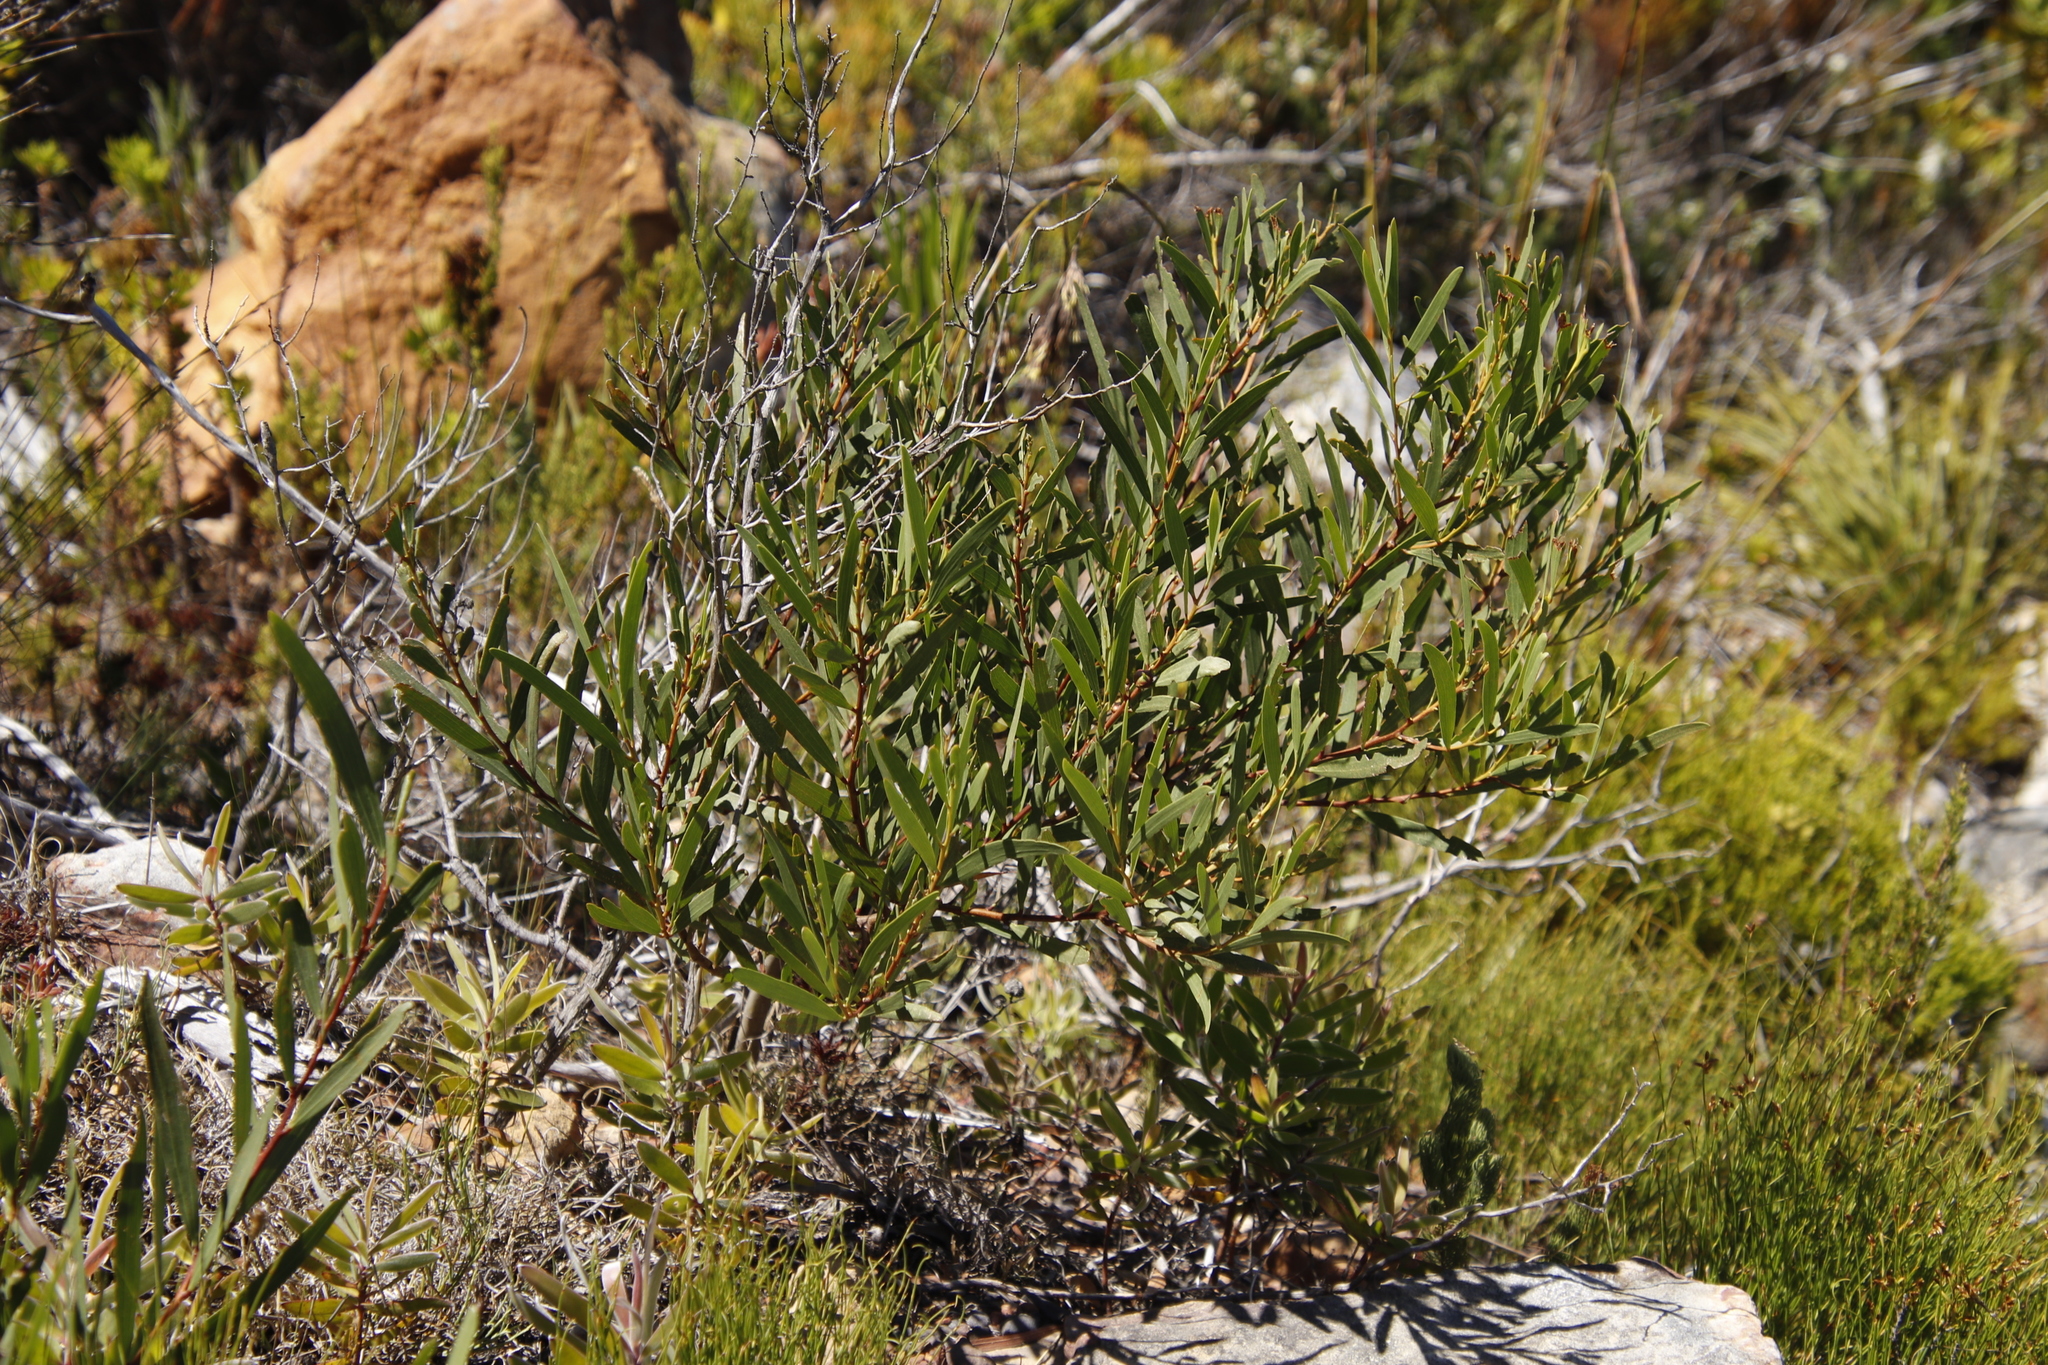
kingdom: Plantae
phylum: Tracheophyta
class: Magnoliopsida
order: Fabales
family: Fabaceae
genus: Acacia
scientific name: Acacia longifolia
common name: Sydney golden wattle
